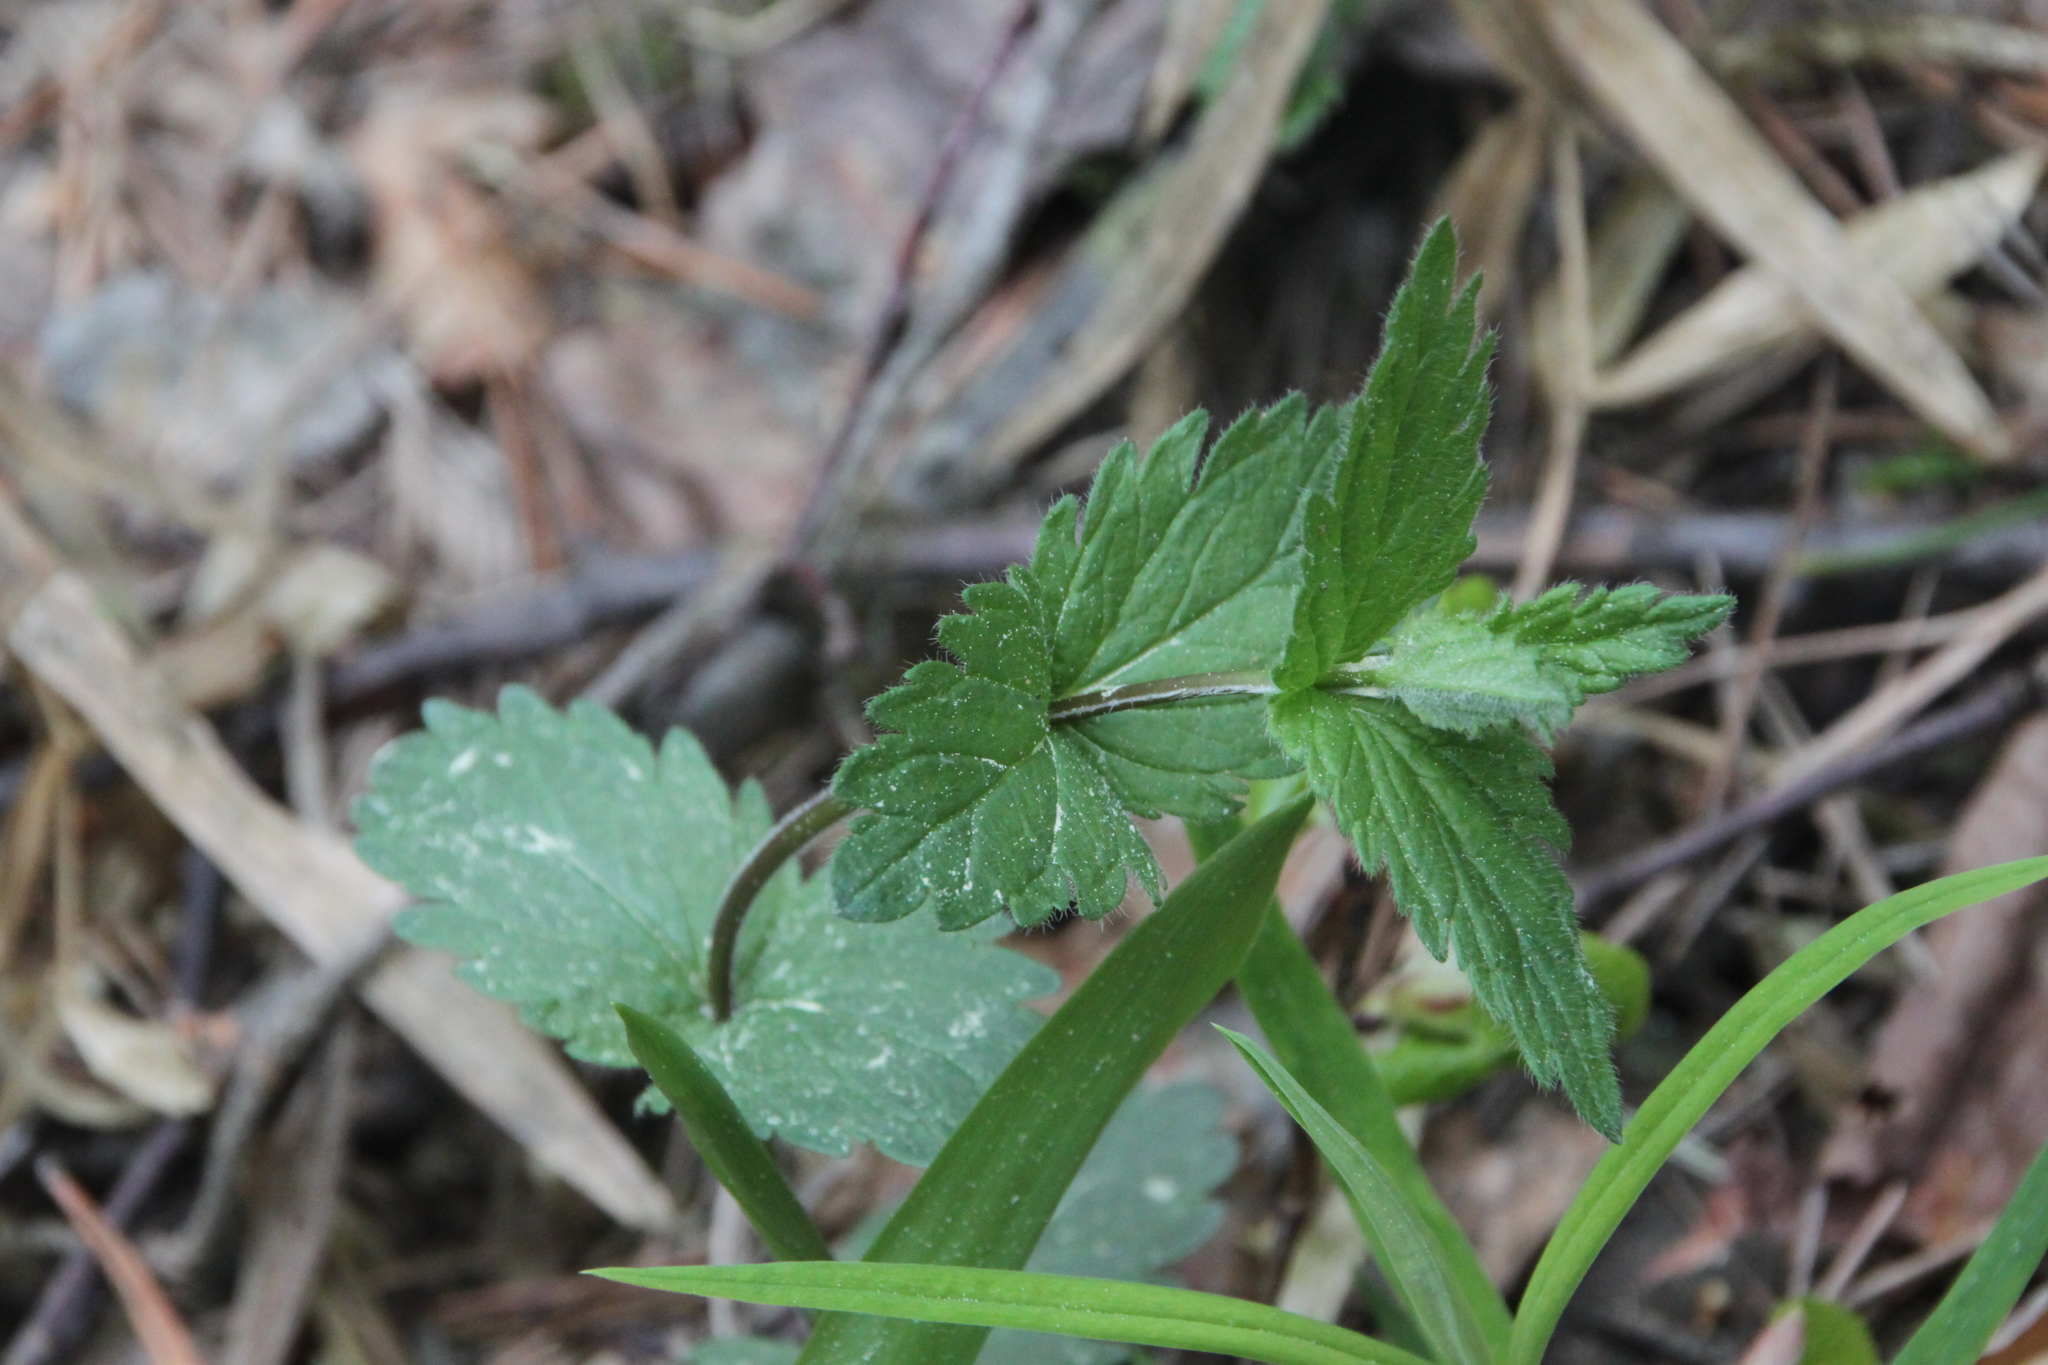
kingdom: Plantae
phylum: Tracheophyta
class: Magnoliopsida
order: Lamiales
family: Plantaginaceae
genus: Veronica
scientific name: Veronica chamaedrys
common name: Germander speedwell
